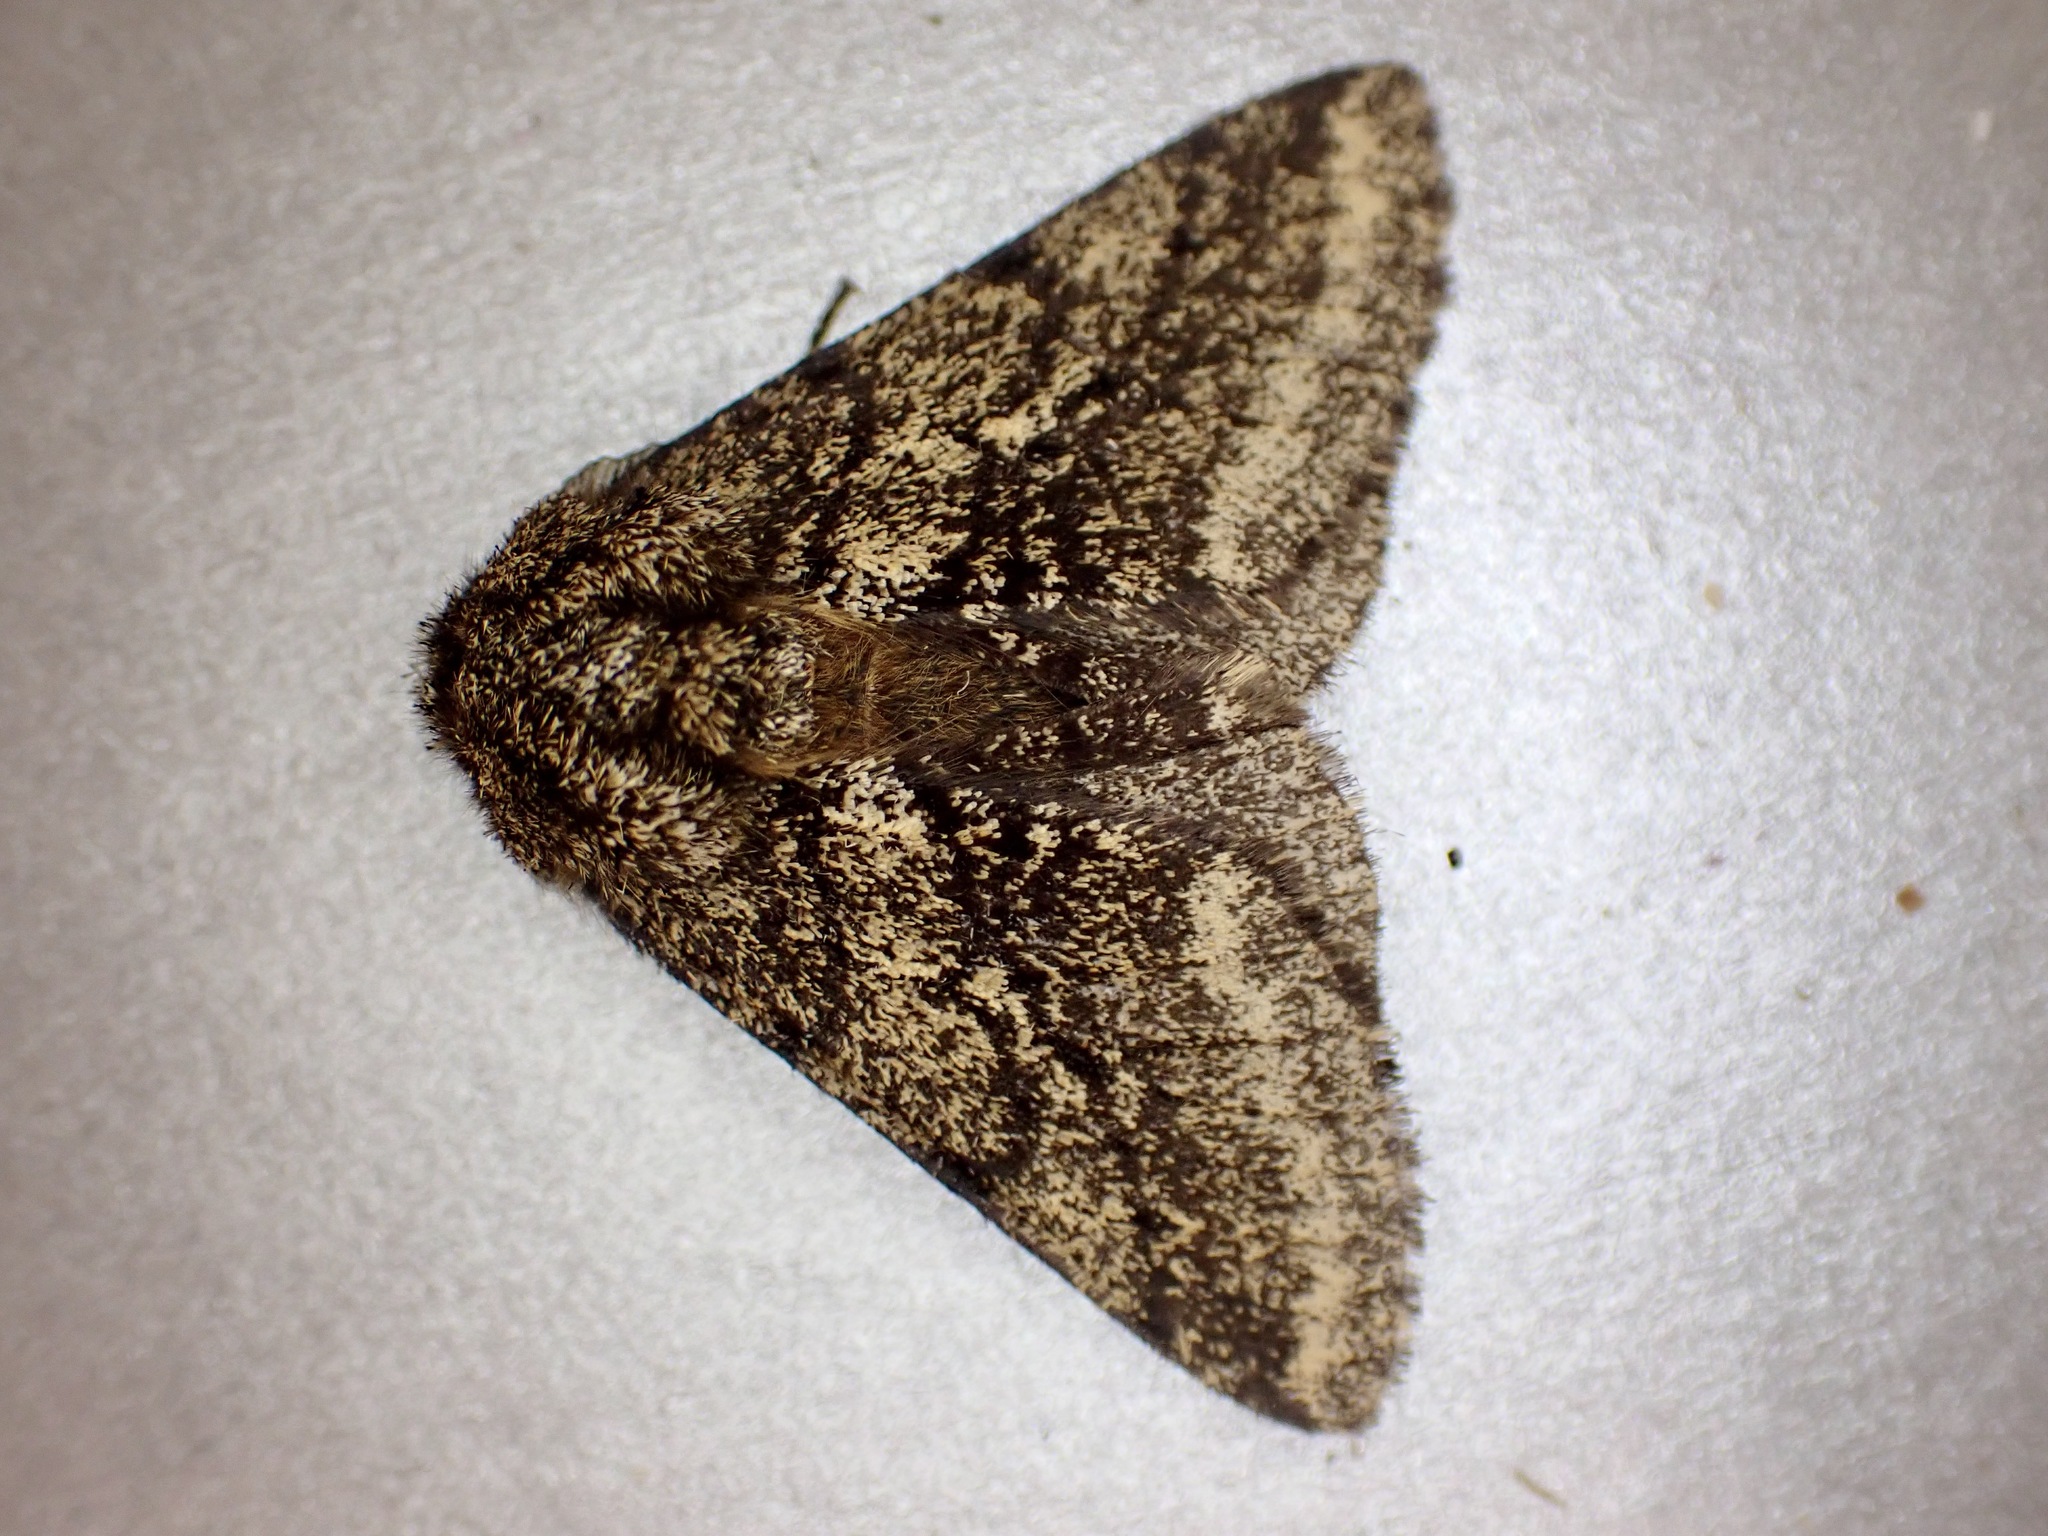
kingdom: Animalia
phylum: Arthropoda
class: Insecta
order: Lepidoptera
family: Geometridae
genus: Lycia
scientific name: Lycia hirtaria
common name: Brindled beauty
